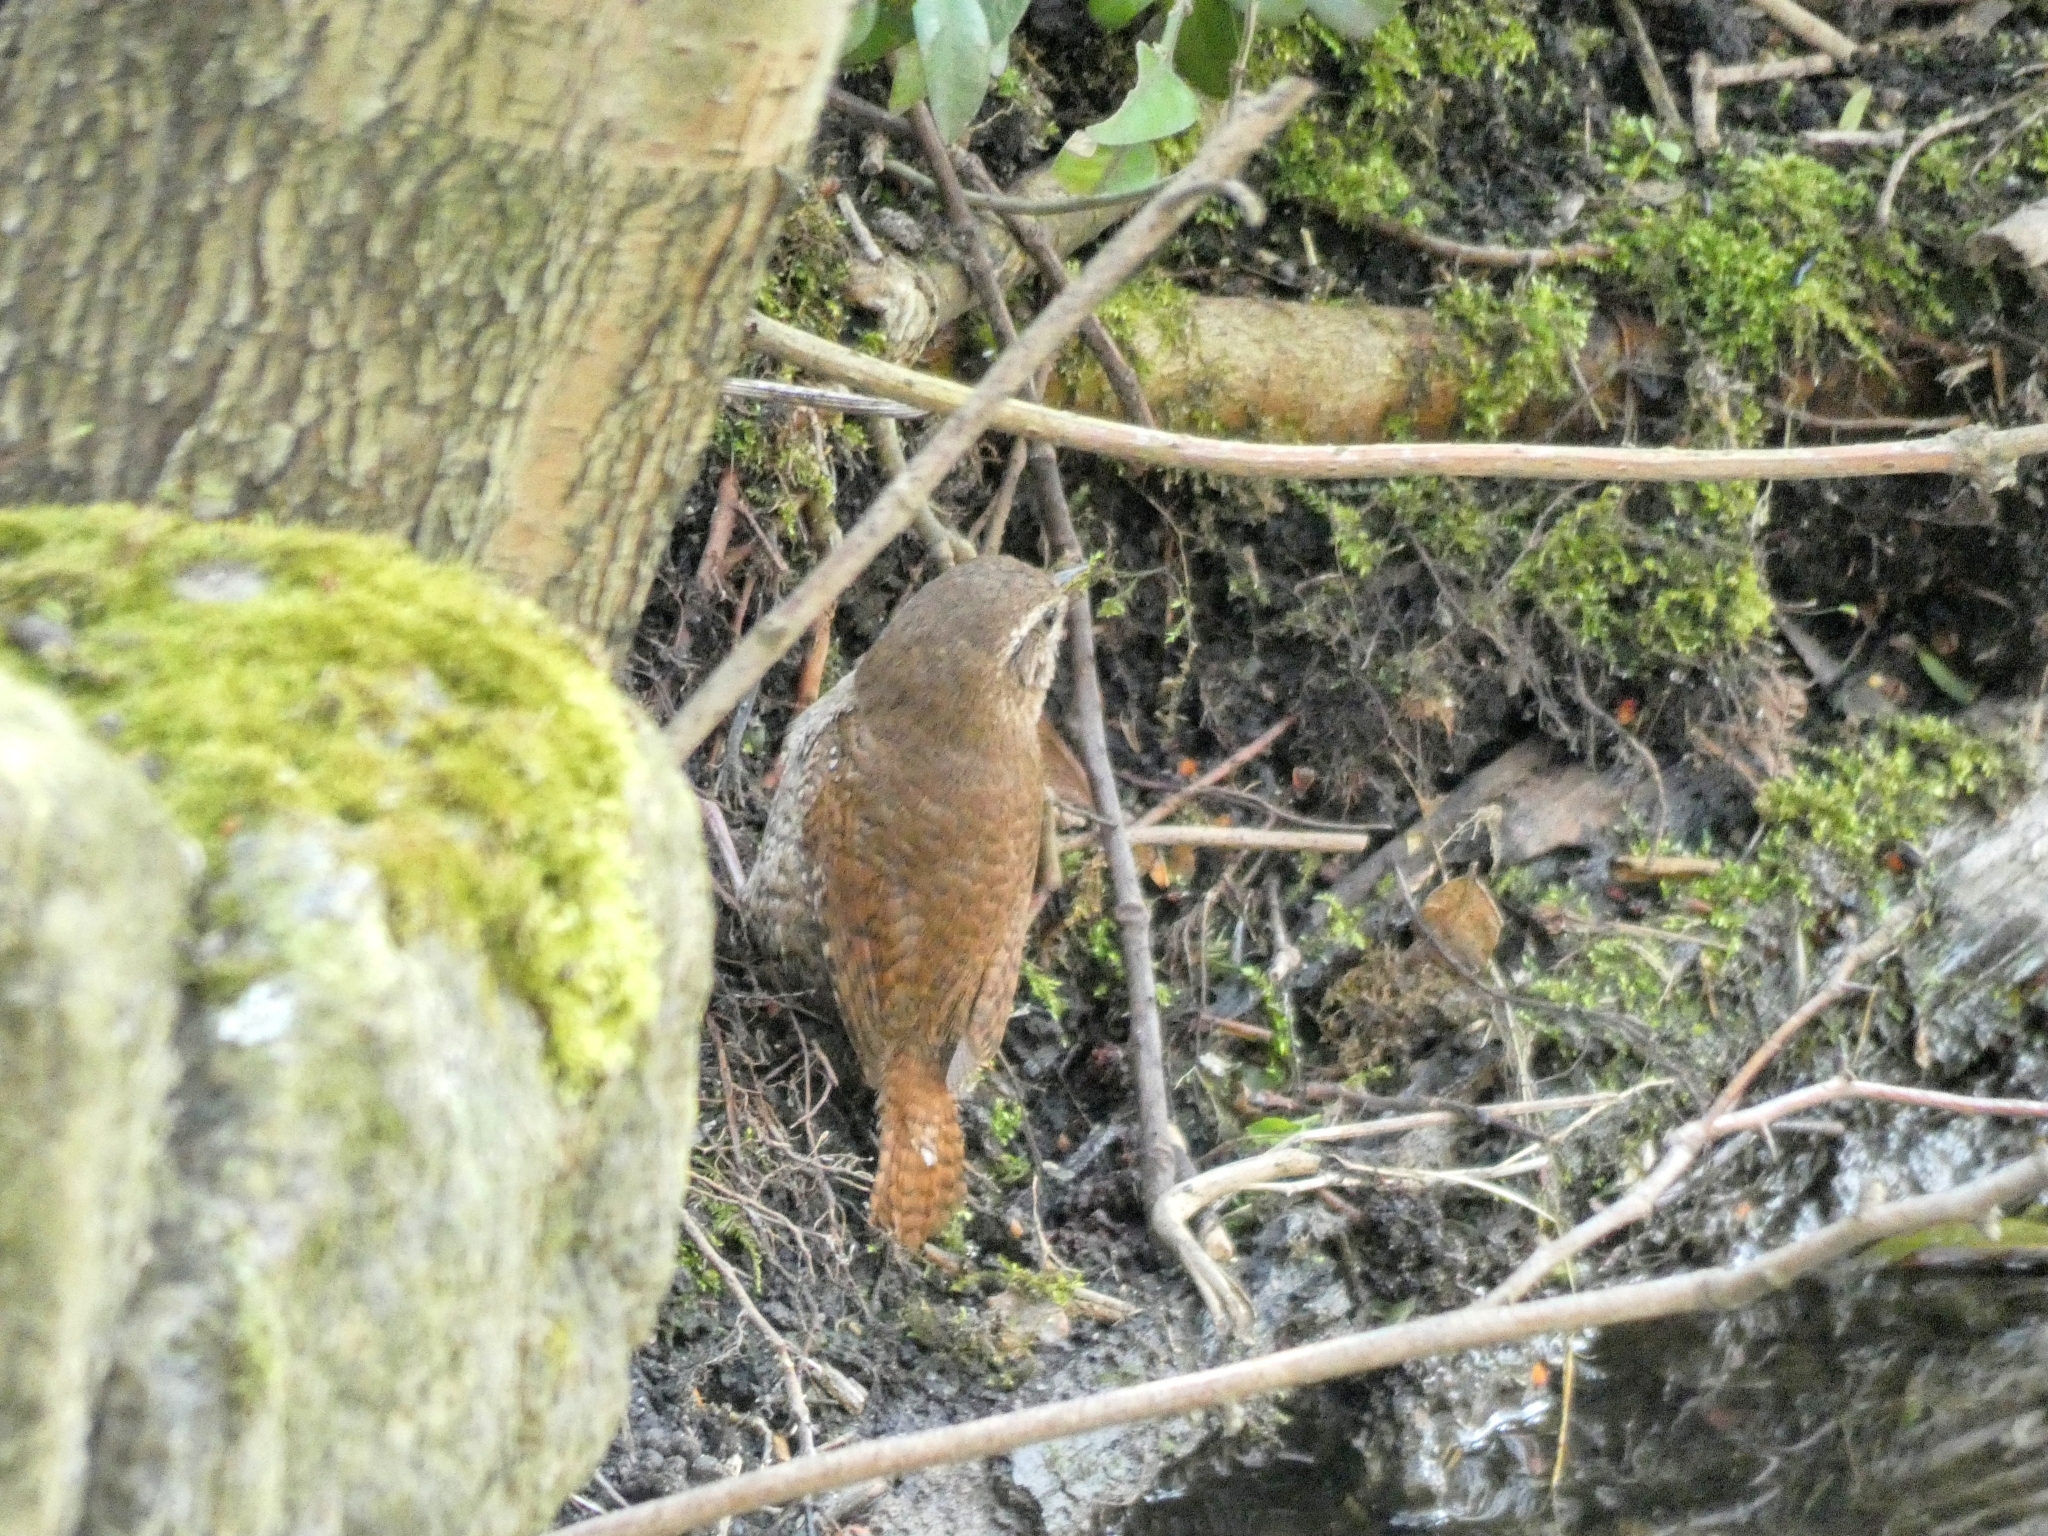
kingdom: Animalia
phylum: Chordata
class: Aves
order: Passeriformes
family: Troglodytidae
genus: Troglodytes
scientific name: Troglodytes troglodytes
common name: Eurasian wren
